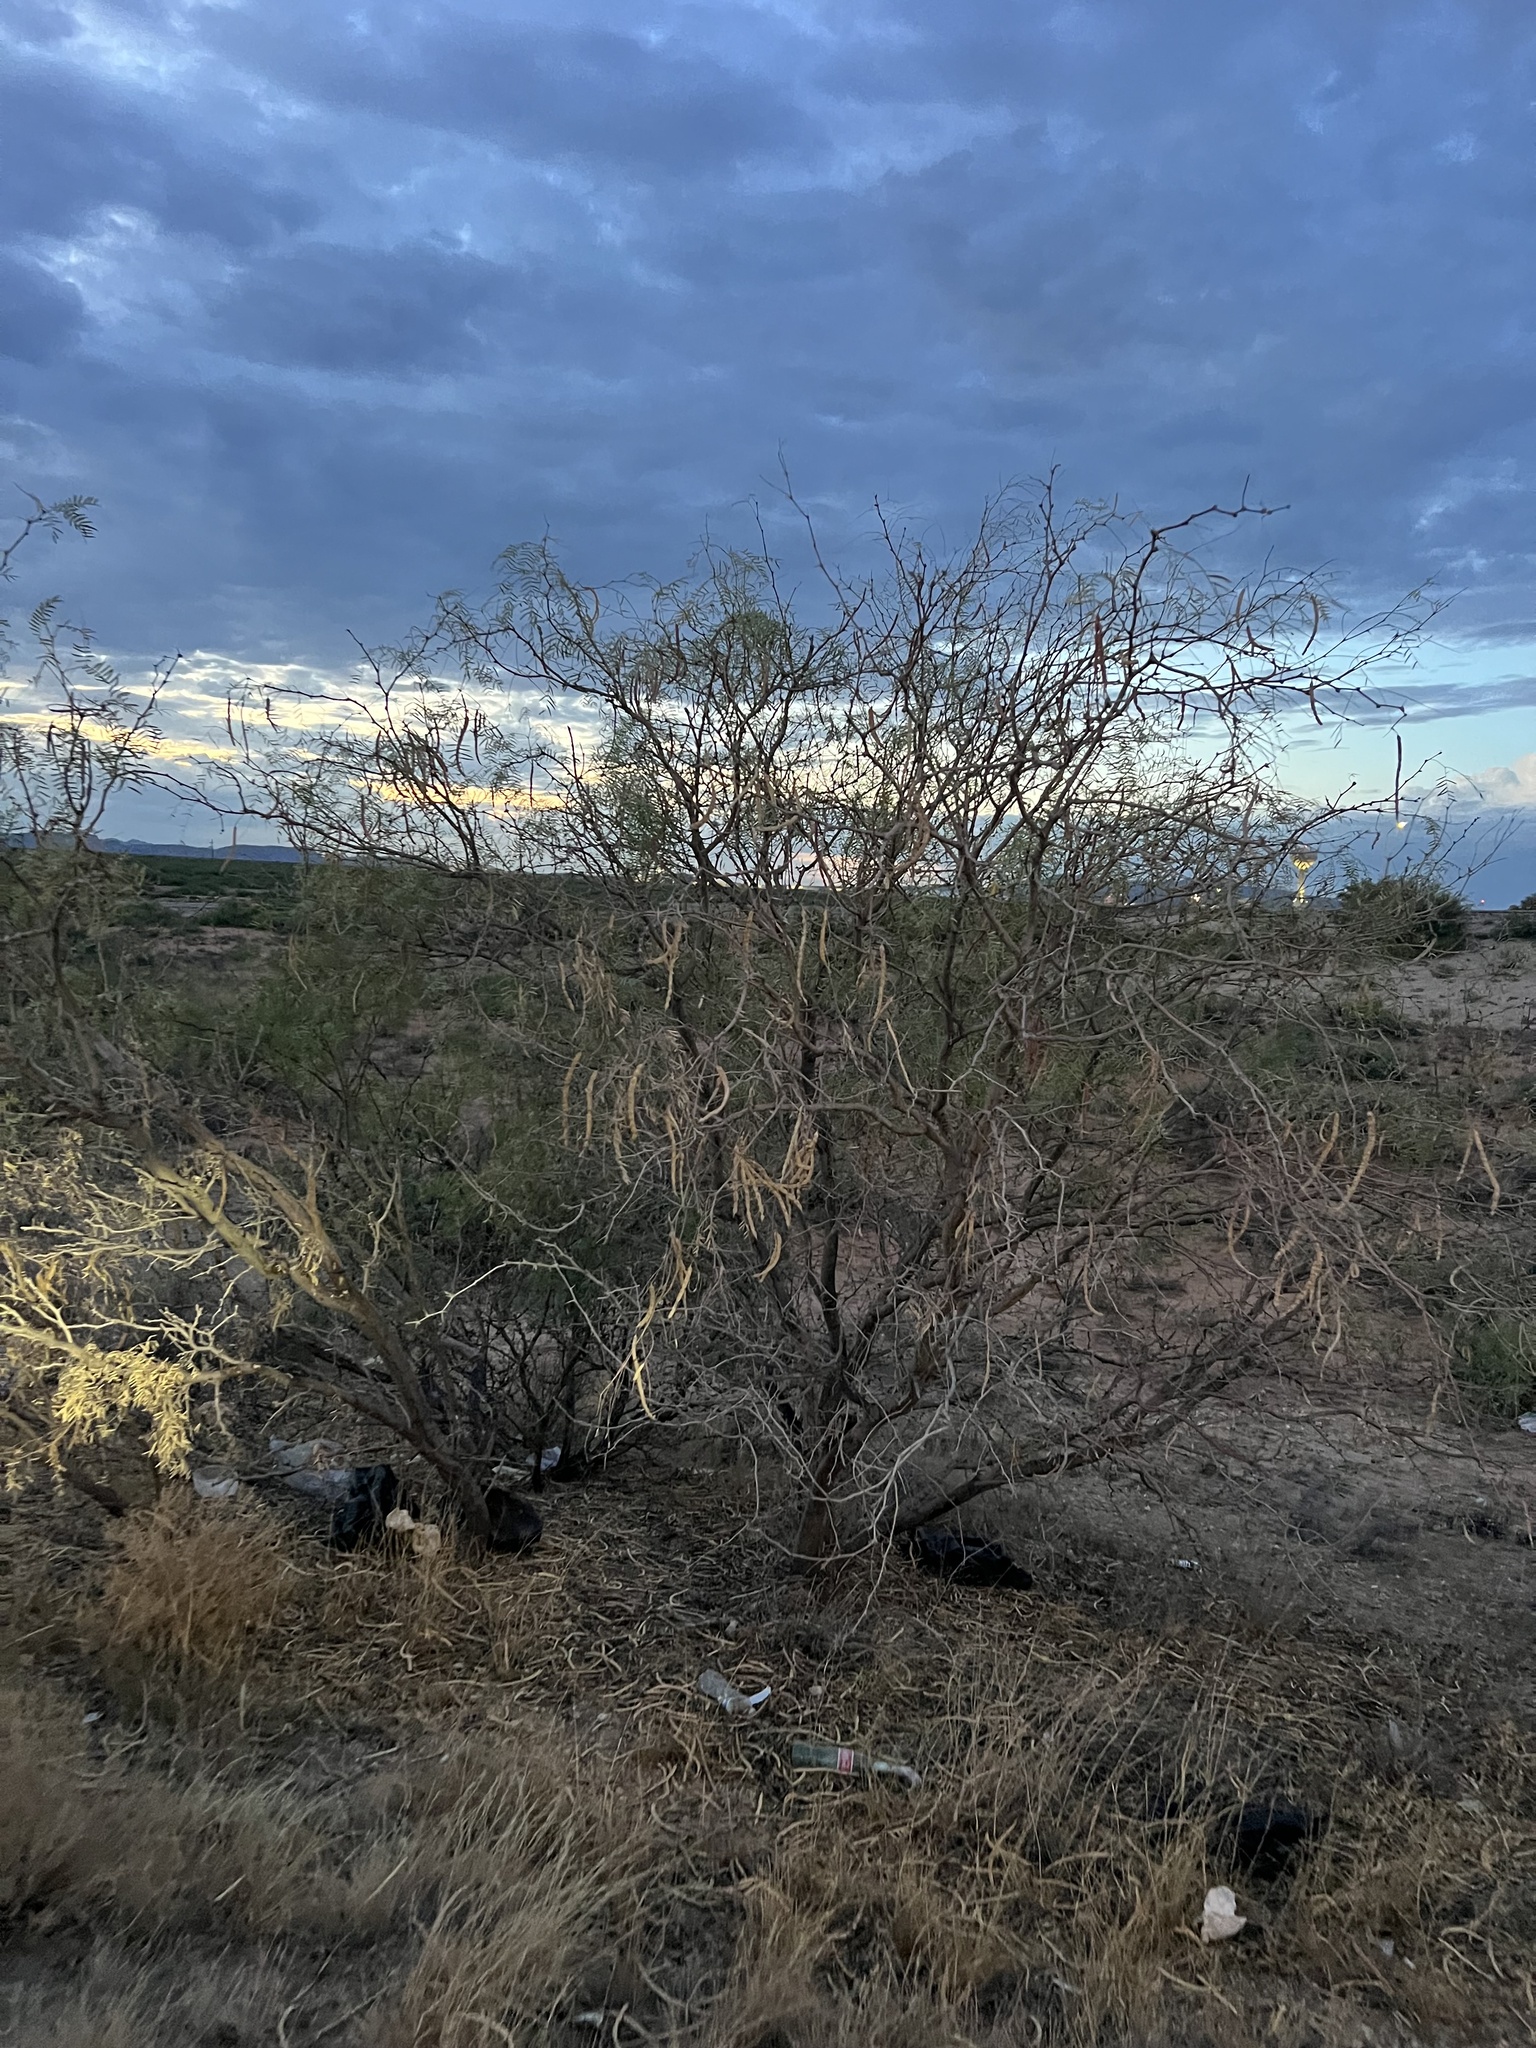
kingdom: Plantae
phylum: Tracheophyta
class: Magnoliopsida
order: Fabales
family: Fabaceae
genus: Prosopis
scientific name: Prosopis glandulosa
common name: Honey mesquite
